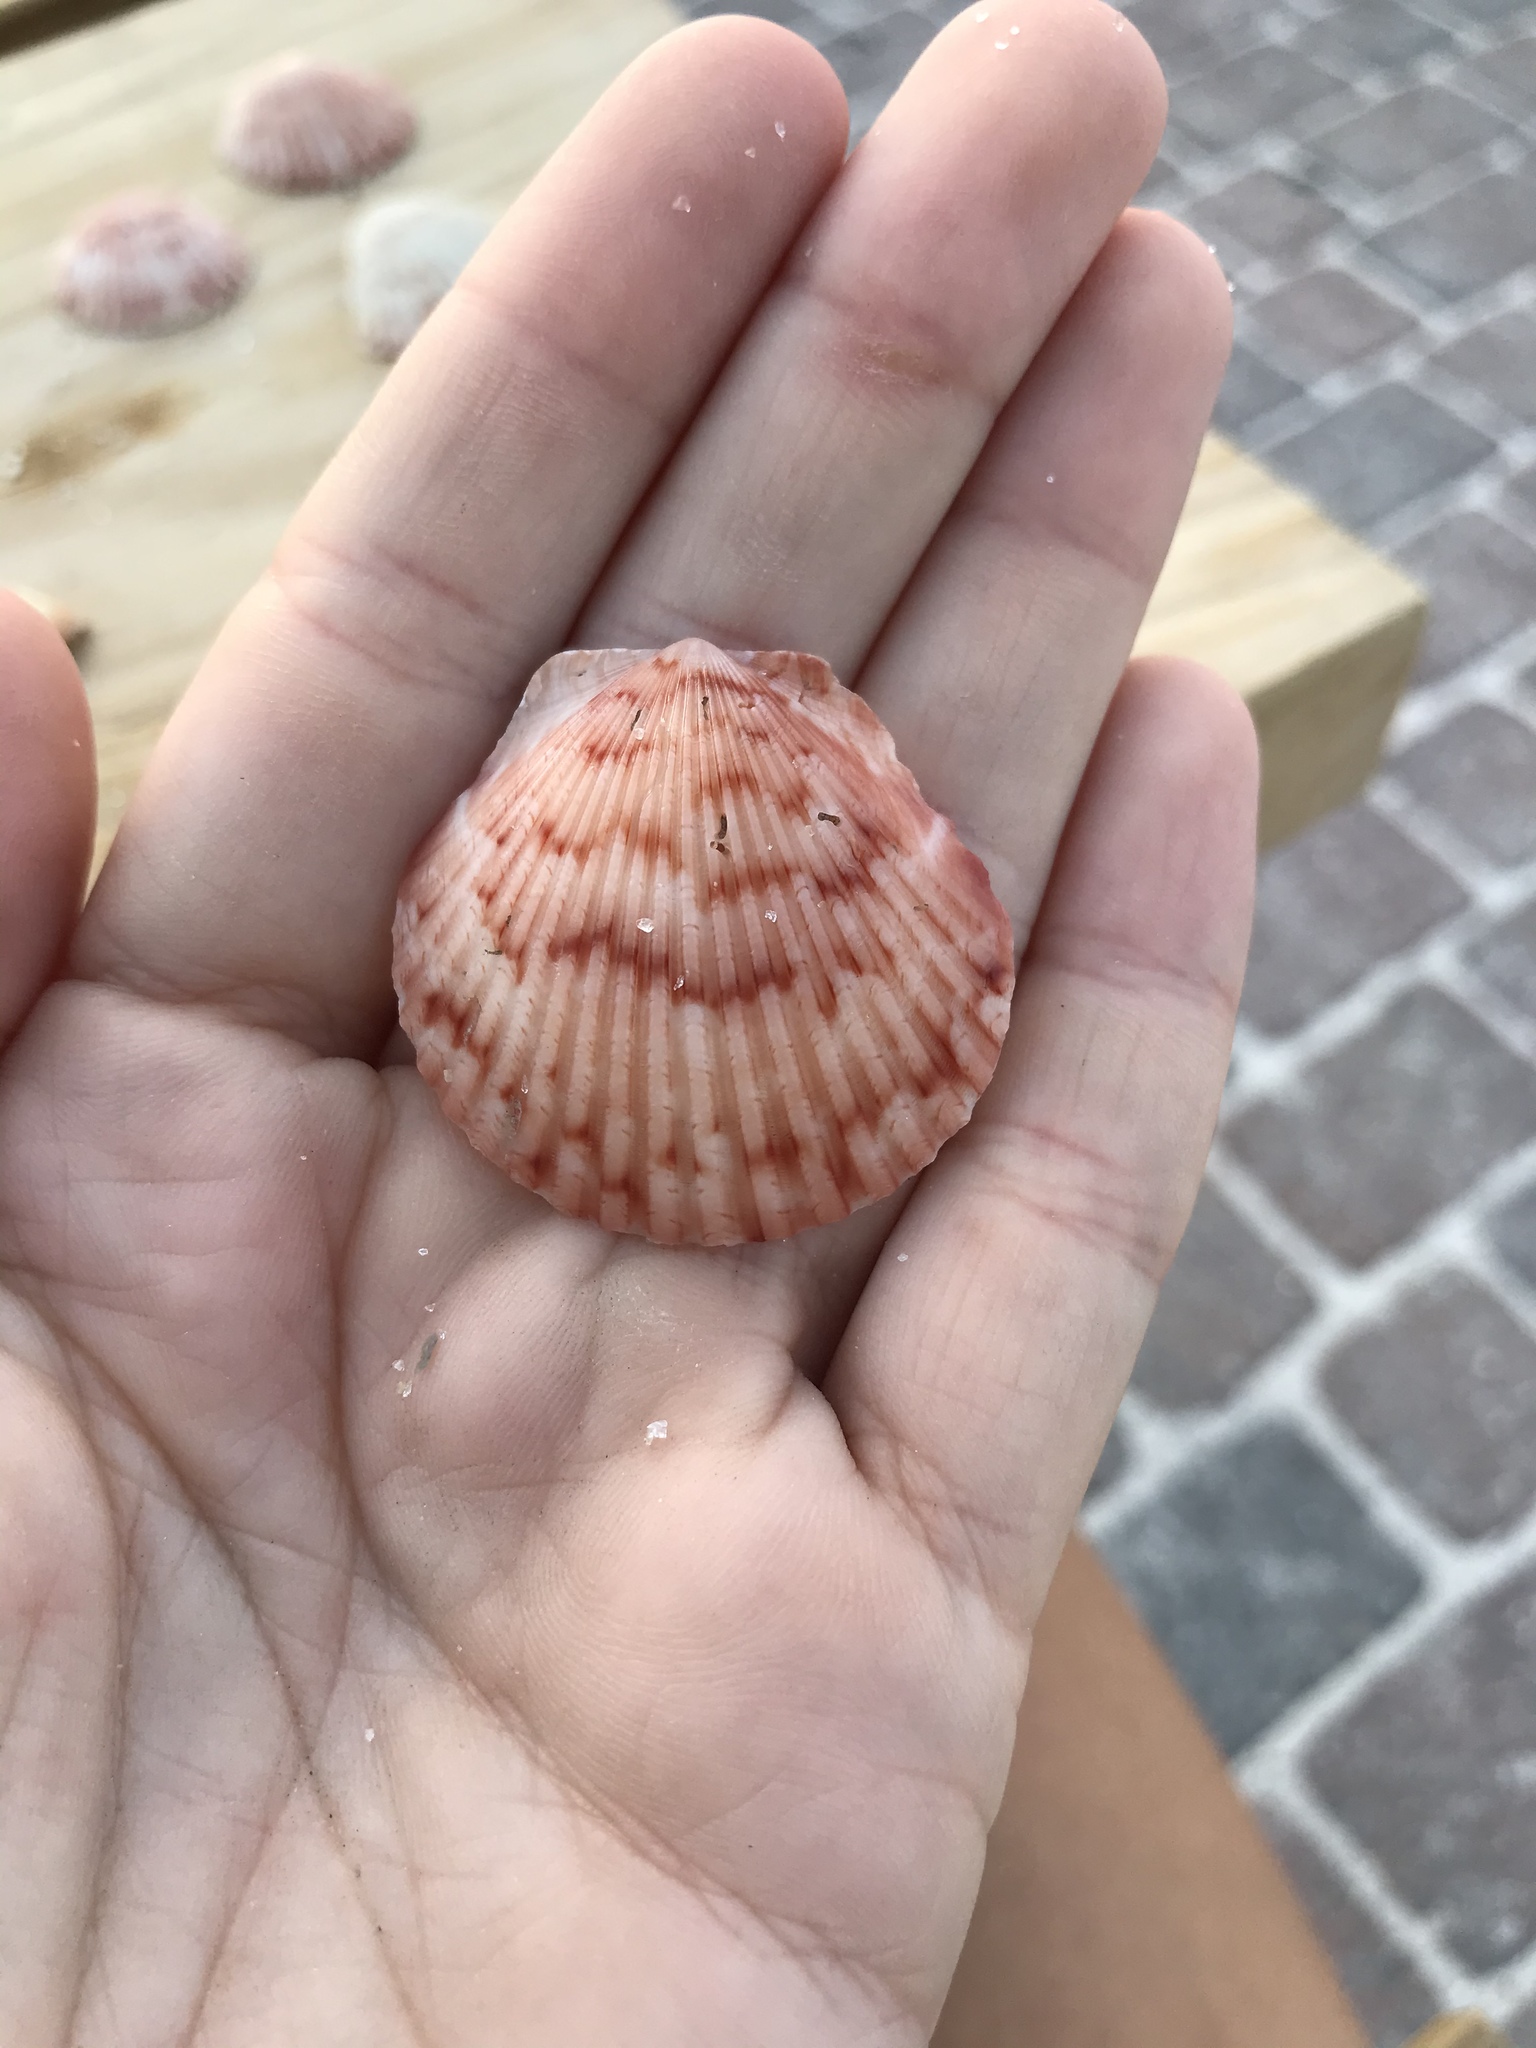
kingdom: Animalia
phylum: Mollusca
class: Bivalvia
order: Pectinida
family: Pectinidae
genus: Argopecten
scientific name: Argopecten gibbus
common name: Atlantic calico scallop
